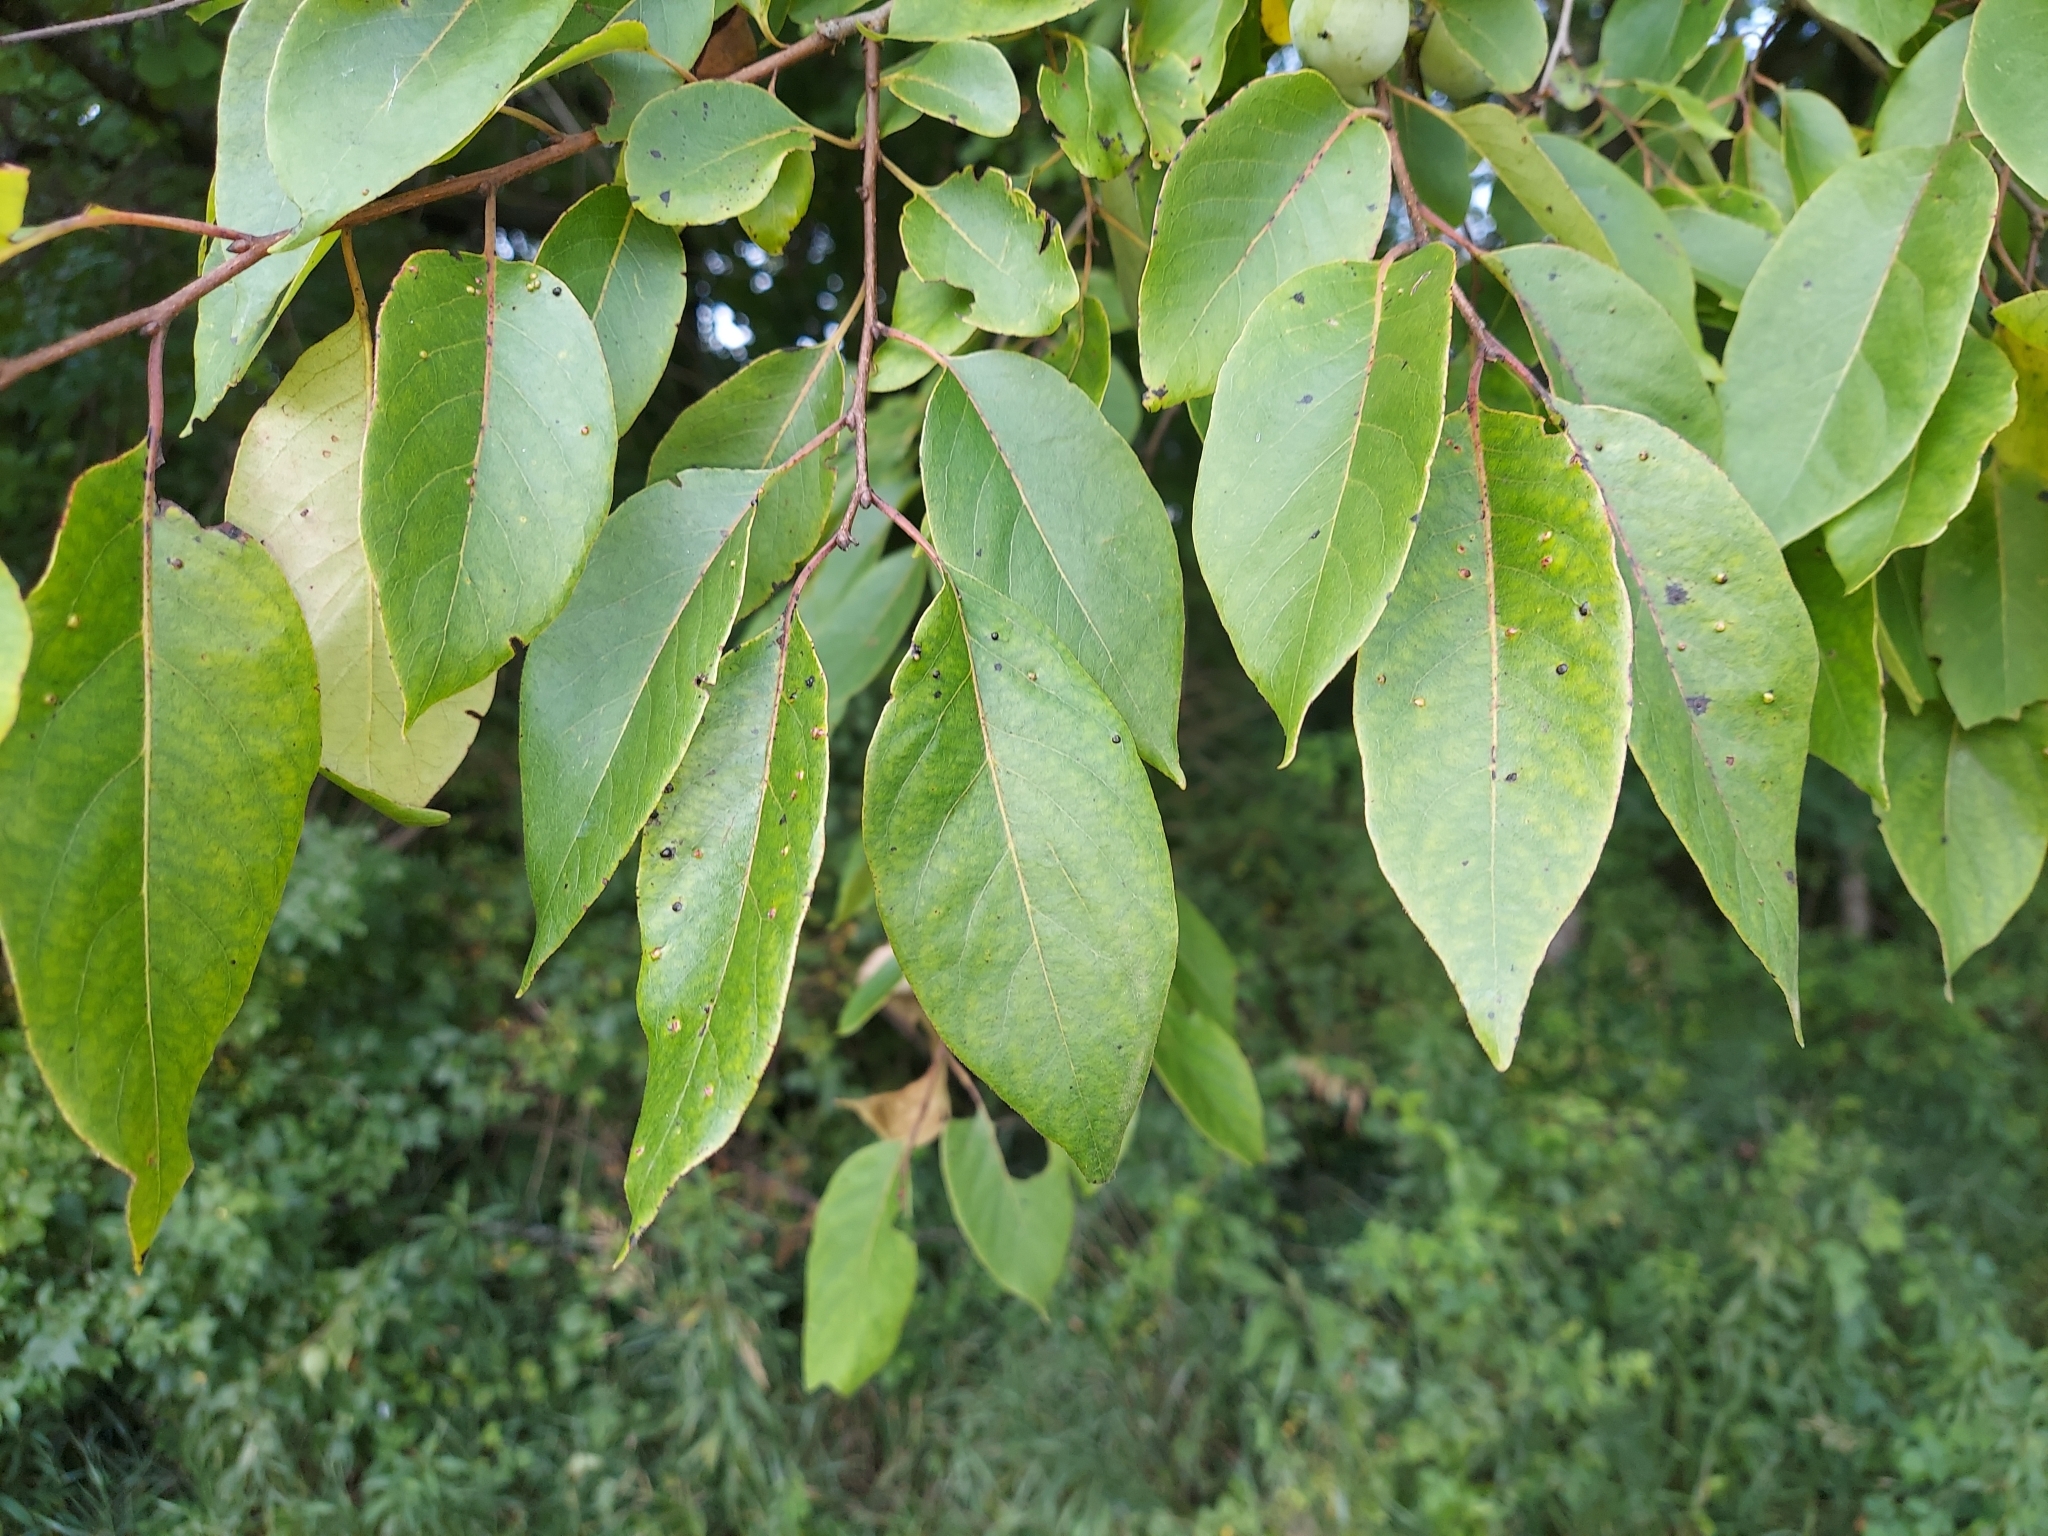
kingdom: Plantae
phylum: Tracheophyta
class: Magnoliopsida
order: Ericales
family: Ebenaceae
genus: Diospyros
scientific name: Diospyros virginiana
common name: Persimmon
